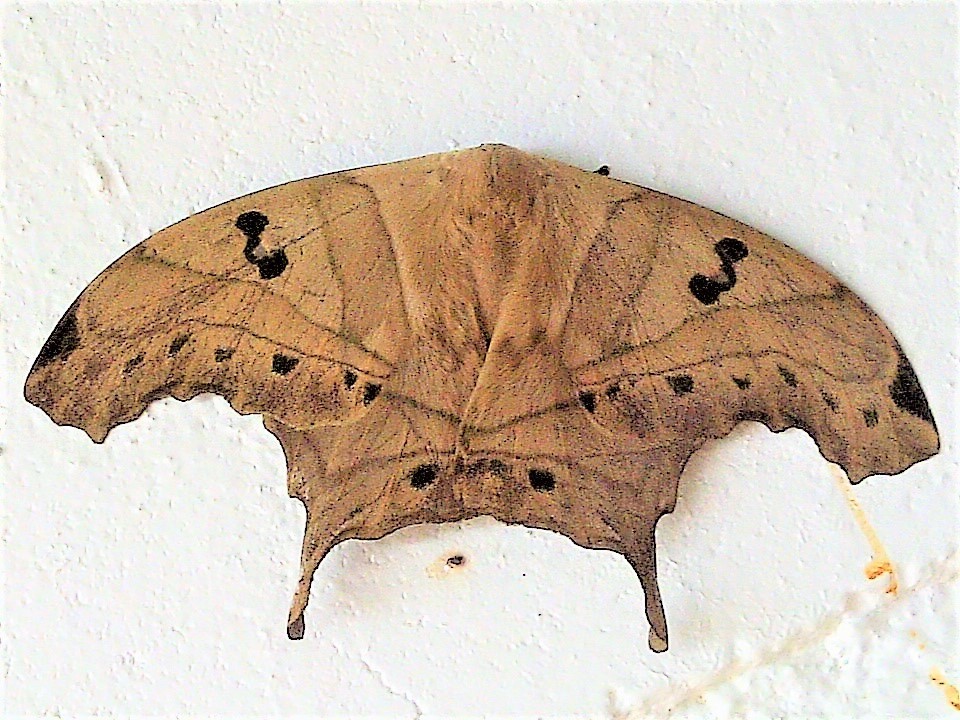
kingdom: Animalia
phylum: Arthropoda
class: Insecta
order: Lepidoptera
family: Saturniidae
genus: Titaea
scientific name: Titaea lemoulti
